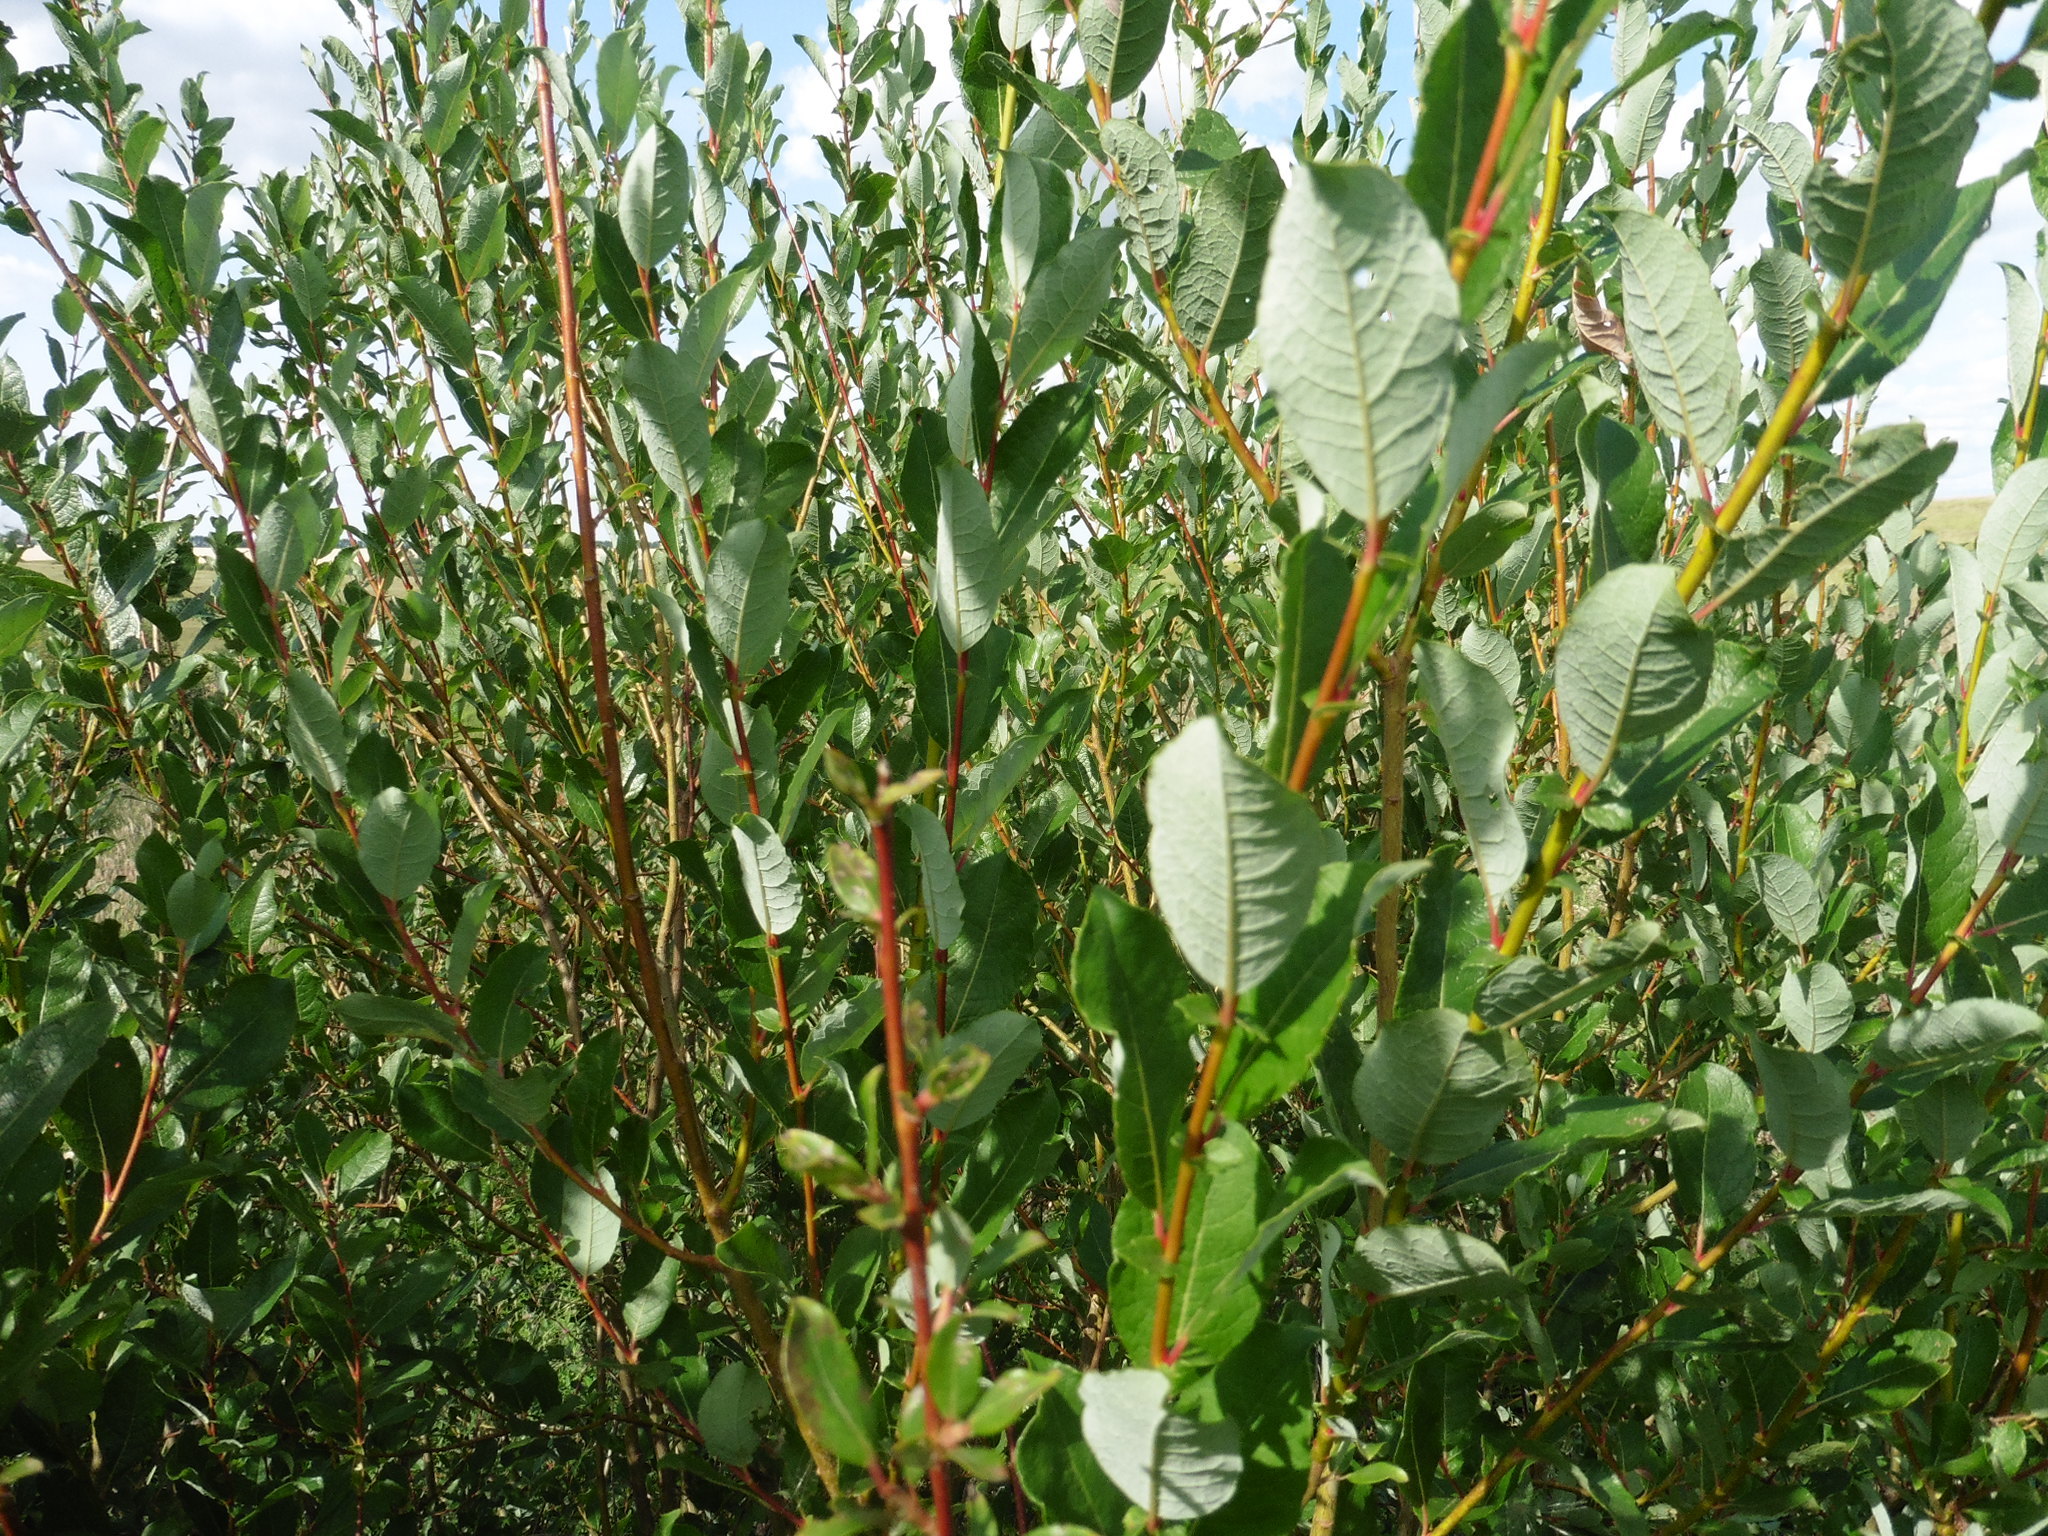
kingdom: Plantae
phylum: Tracheophyta
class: Magnoliopsida
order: Malpighiales
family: Salicaceae
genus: Salix
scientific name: Salix starkeana
